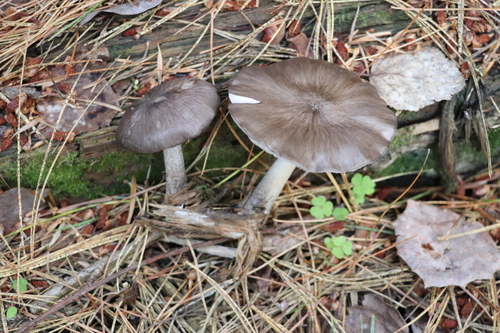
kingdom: Fungi
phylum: Basidiomycota
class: Agaricomycetes
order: Agaricales
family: Pluteaceae
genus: Pluteus
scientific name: Pluteus rangifer
